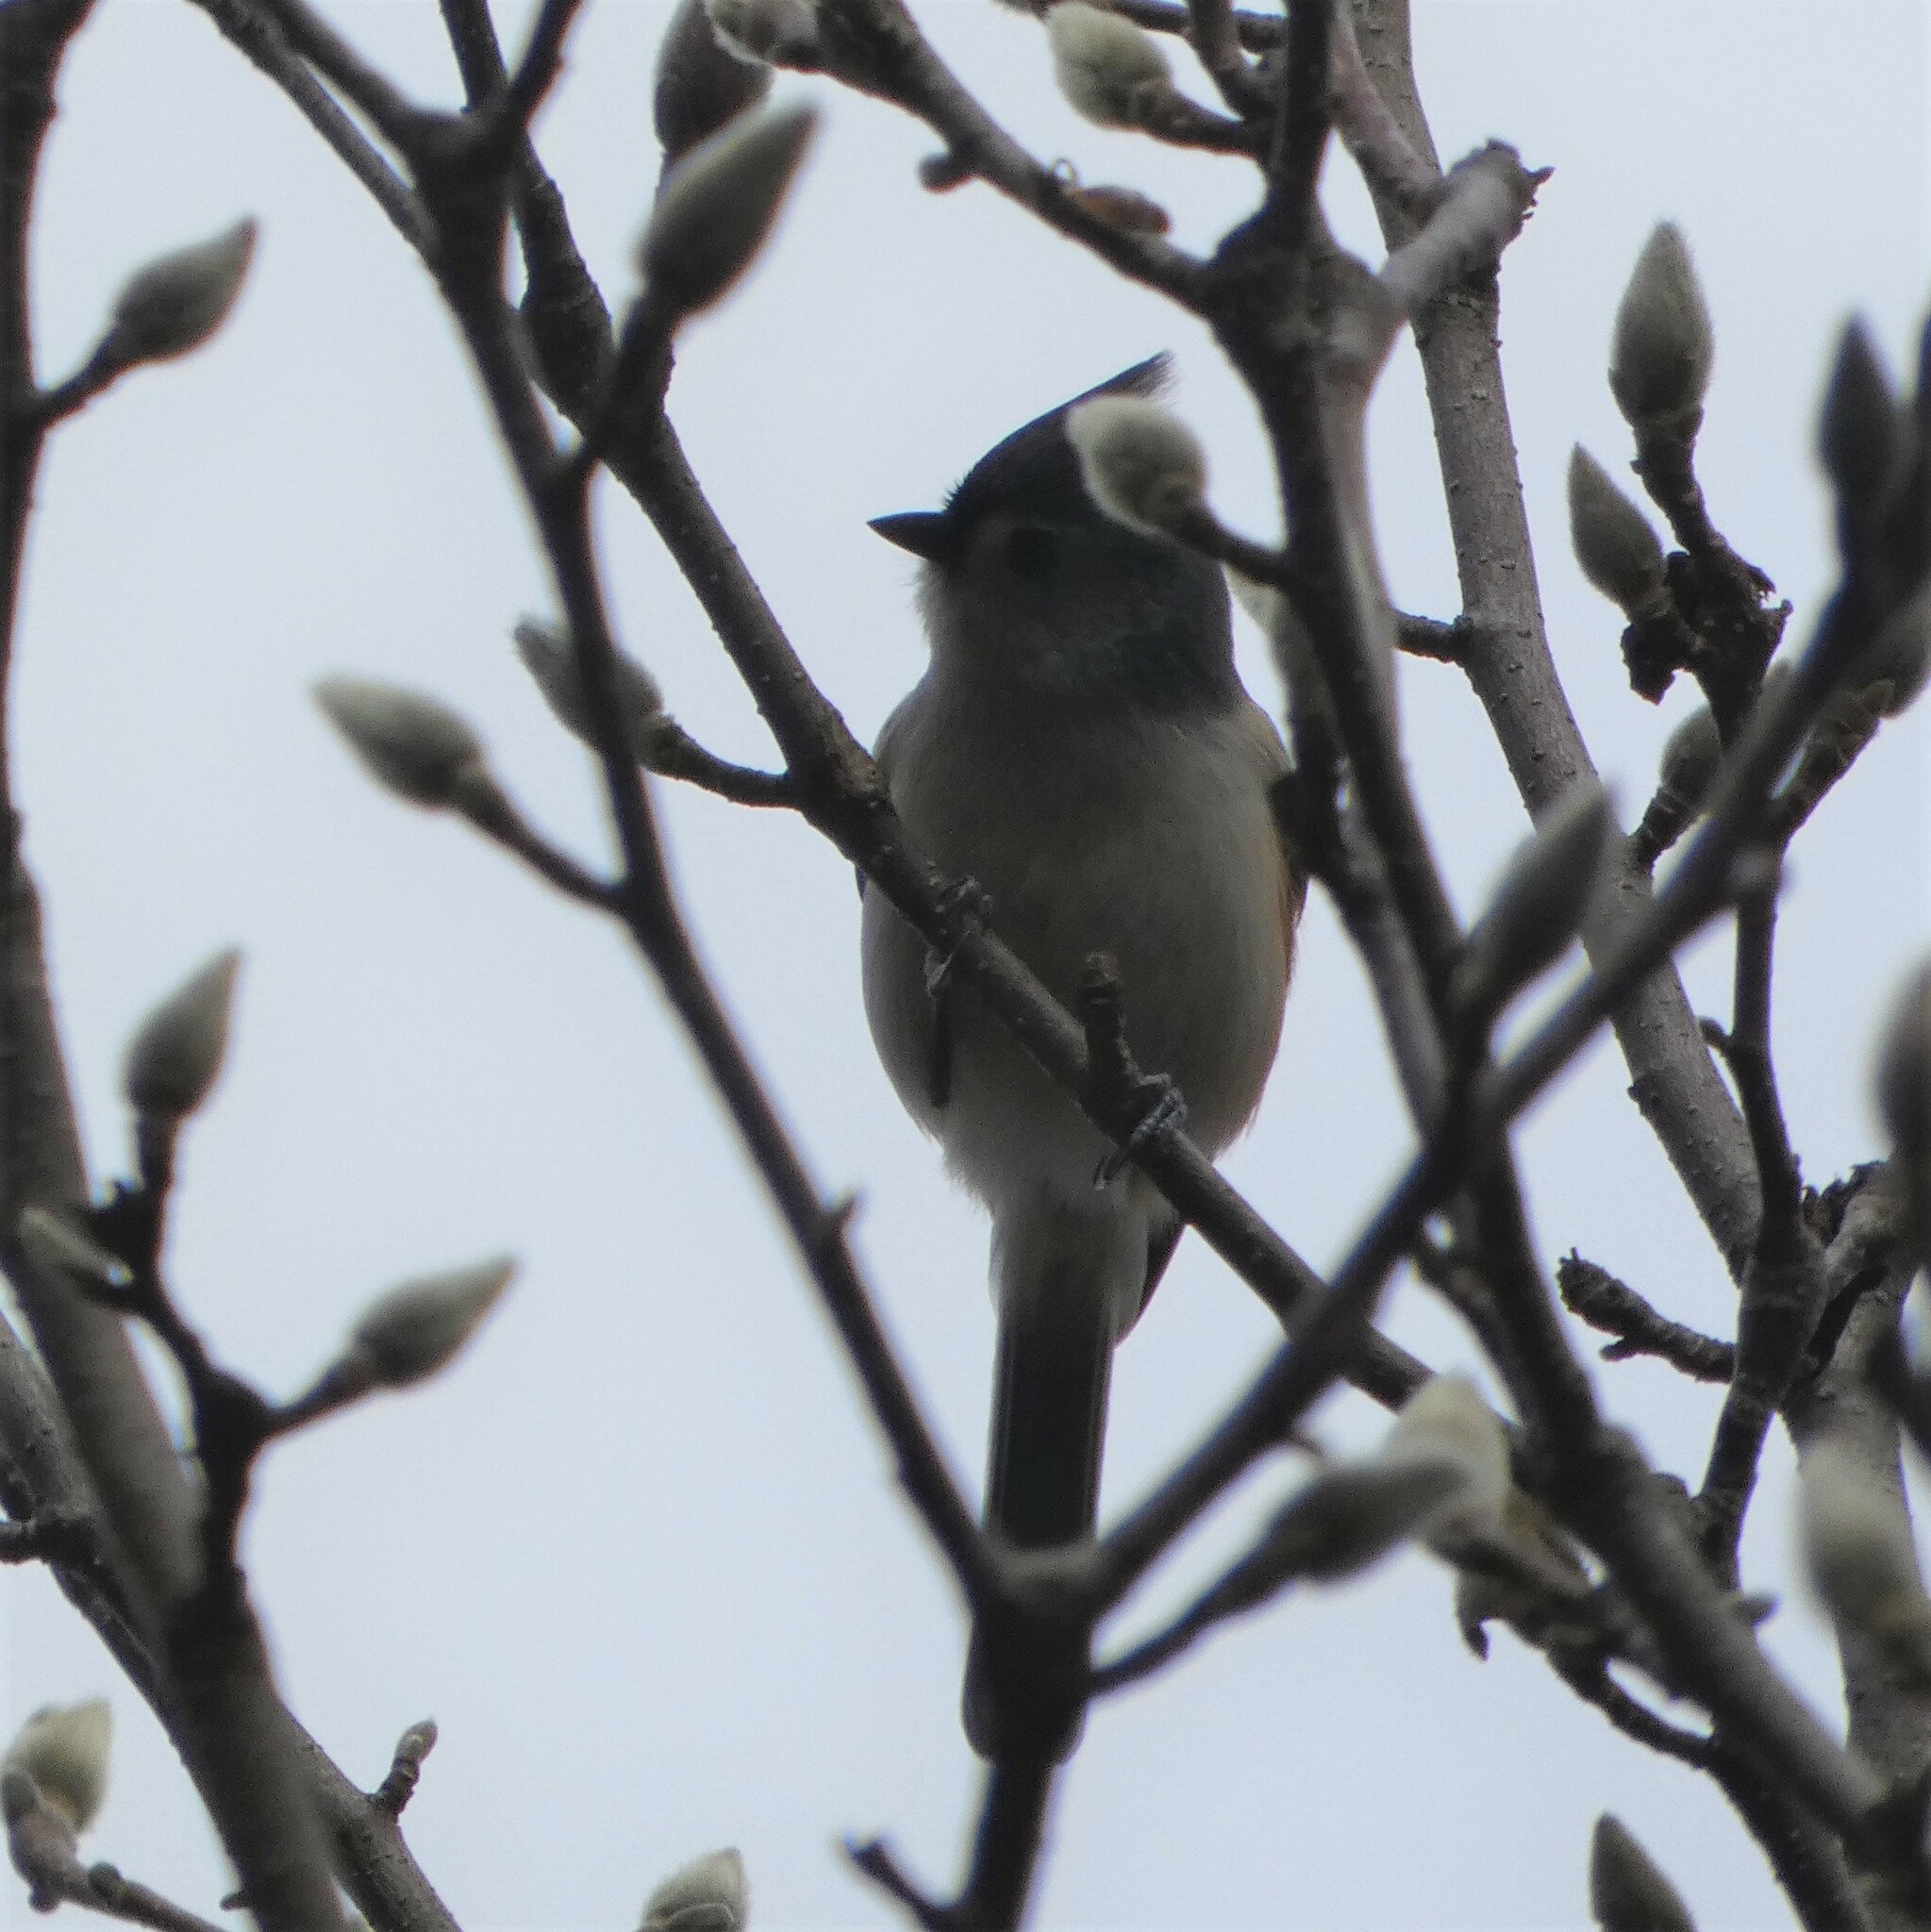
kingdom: Animalia
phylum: Chordata
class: Aves
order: Passeriformes
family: Paridae
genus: Baeolophus
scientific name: Baeolophus bicolor
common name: Tufted titmouse
